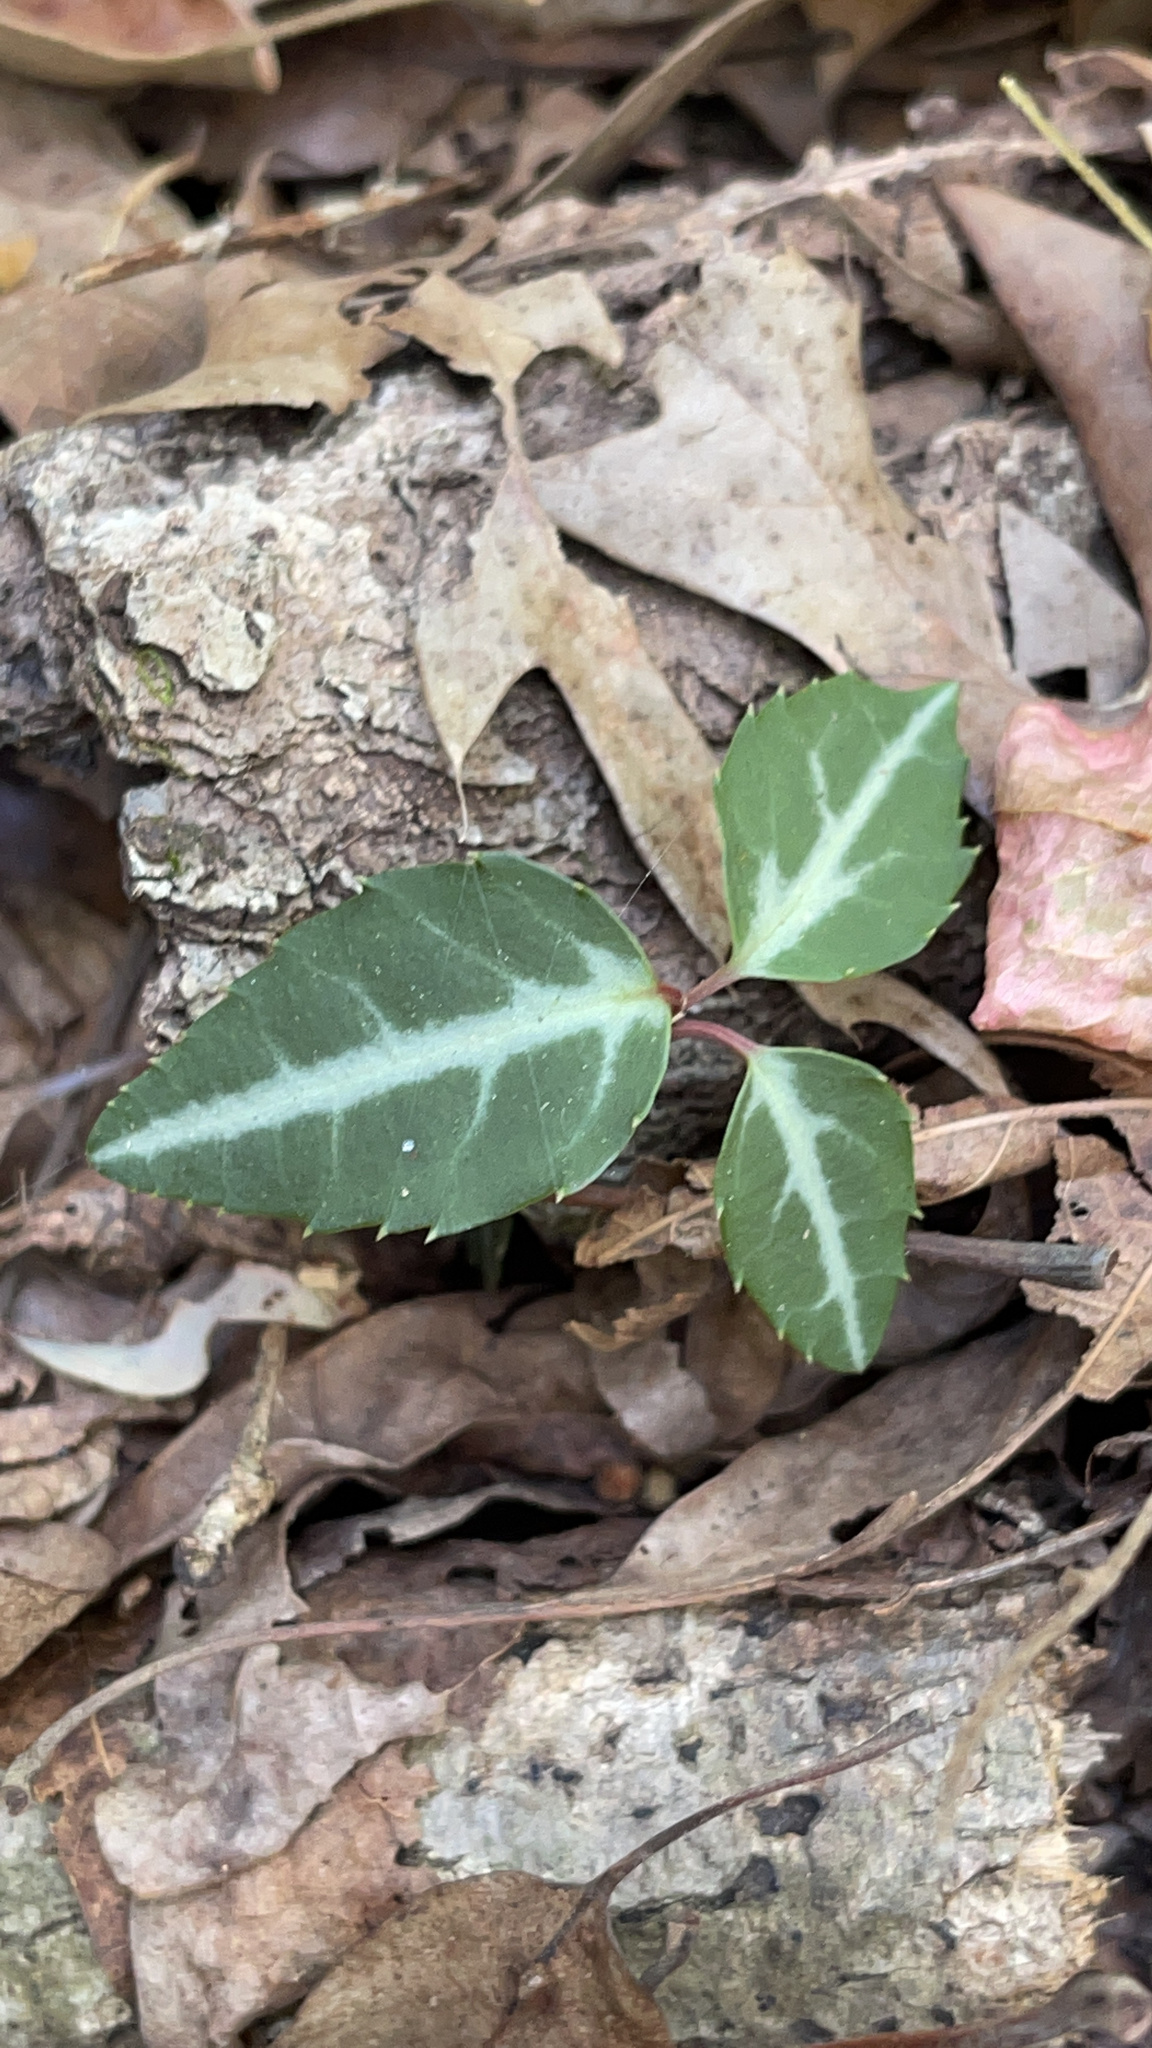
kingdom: Plantae
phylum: Tracheophyta
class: Magnoliopsida
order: Ericales
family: Ericaceae
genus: Chimaphila
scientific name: Chimaphila maculata
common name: Spotted pipsissewa
